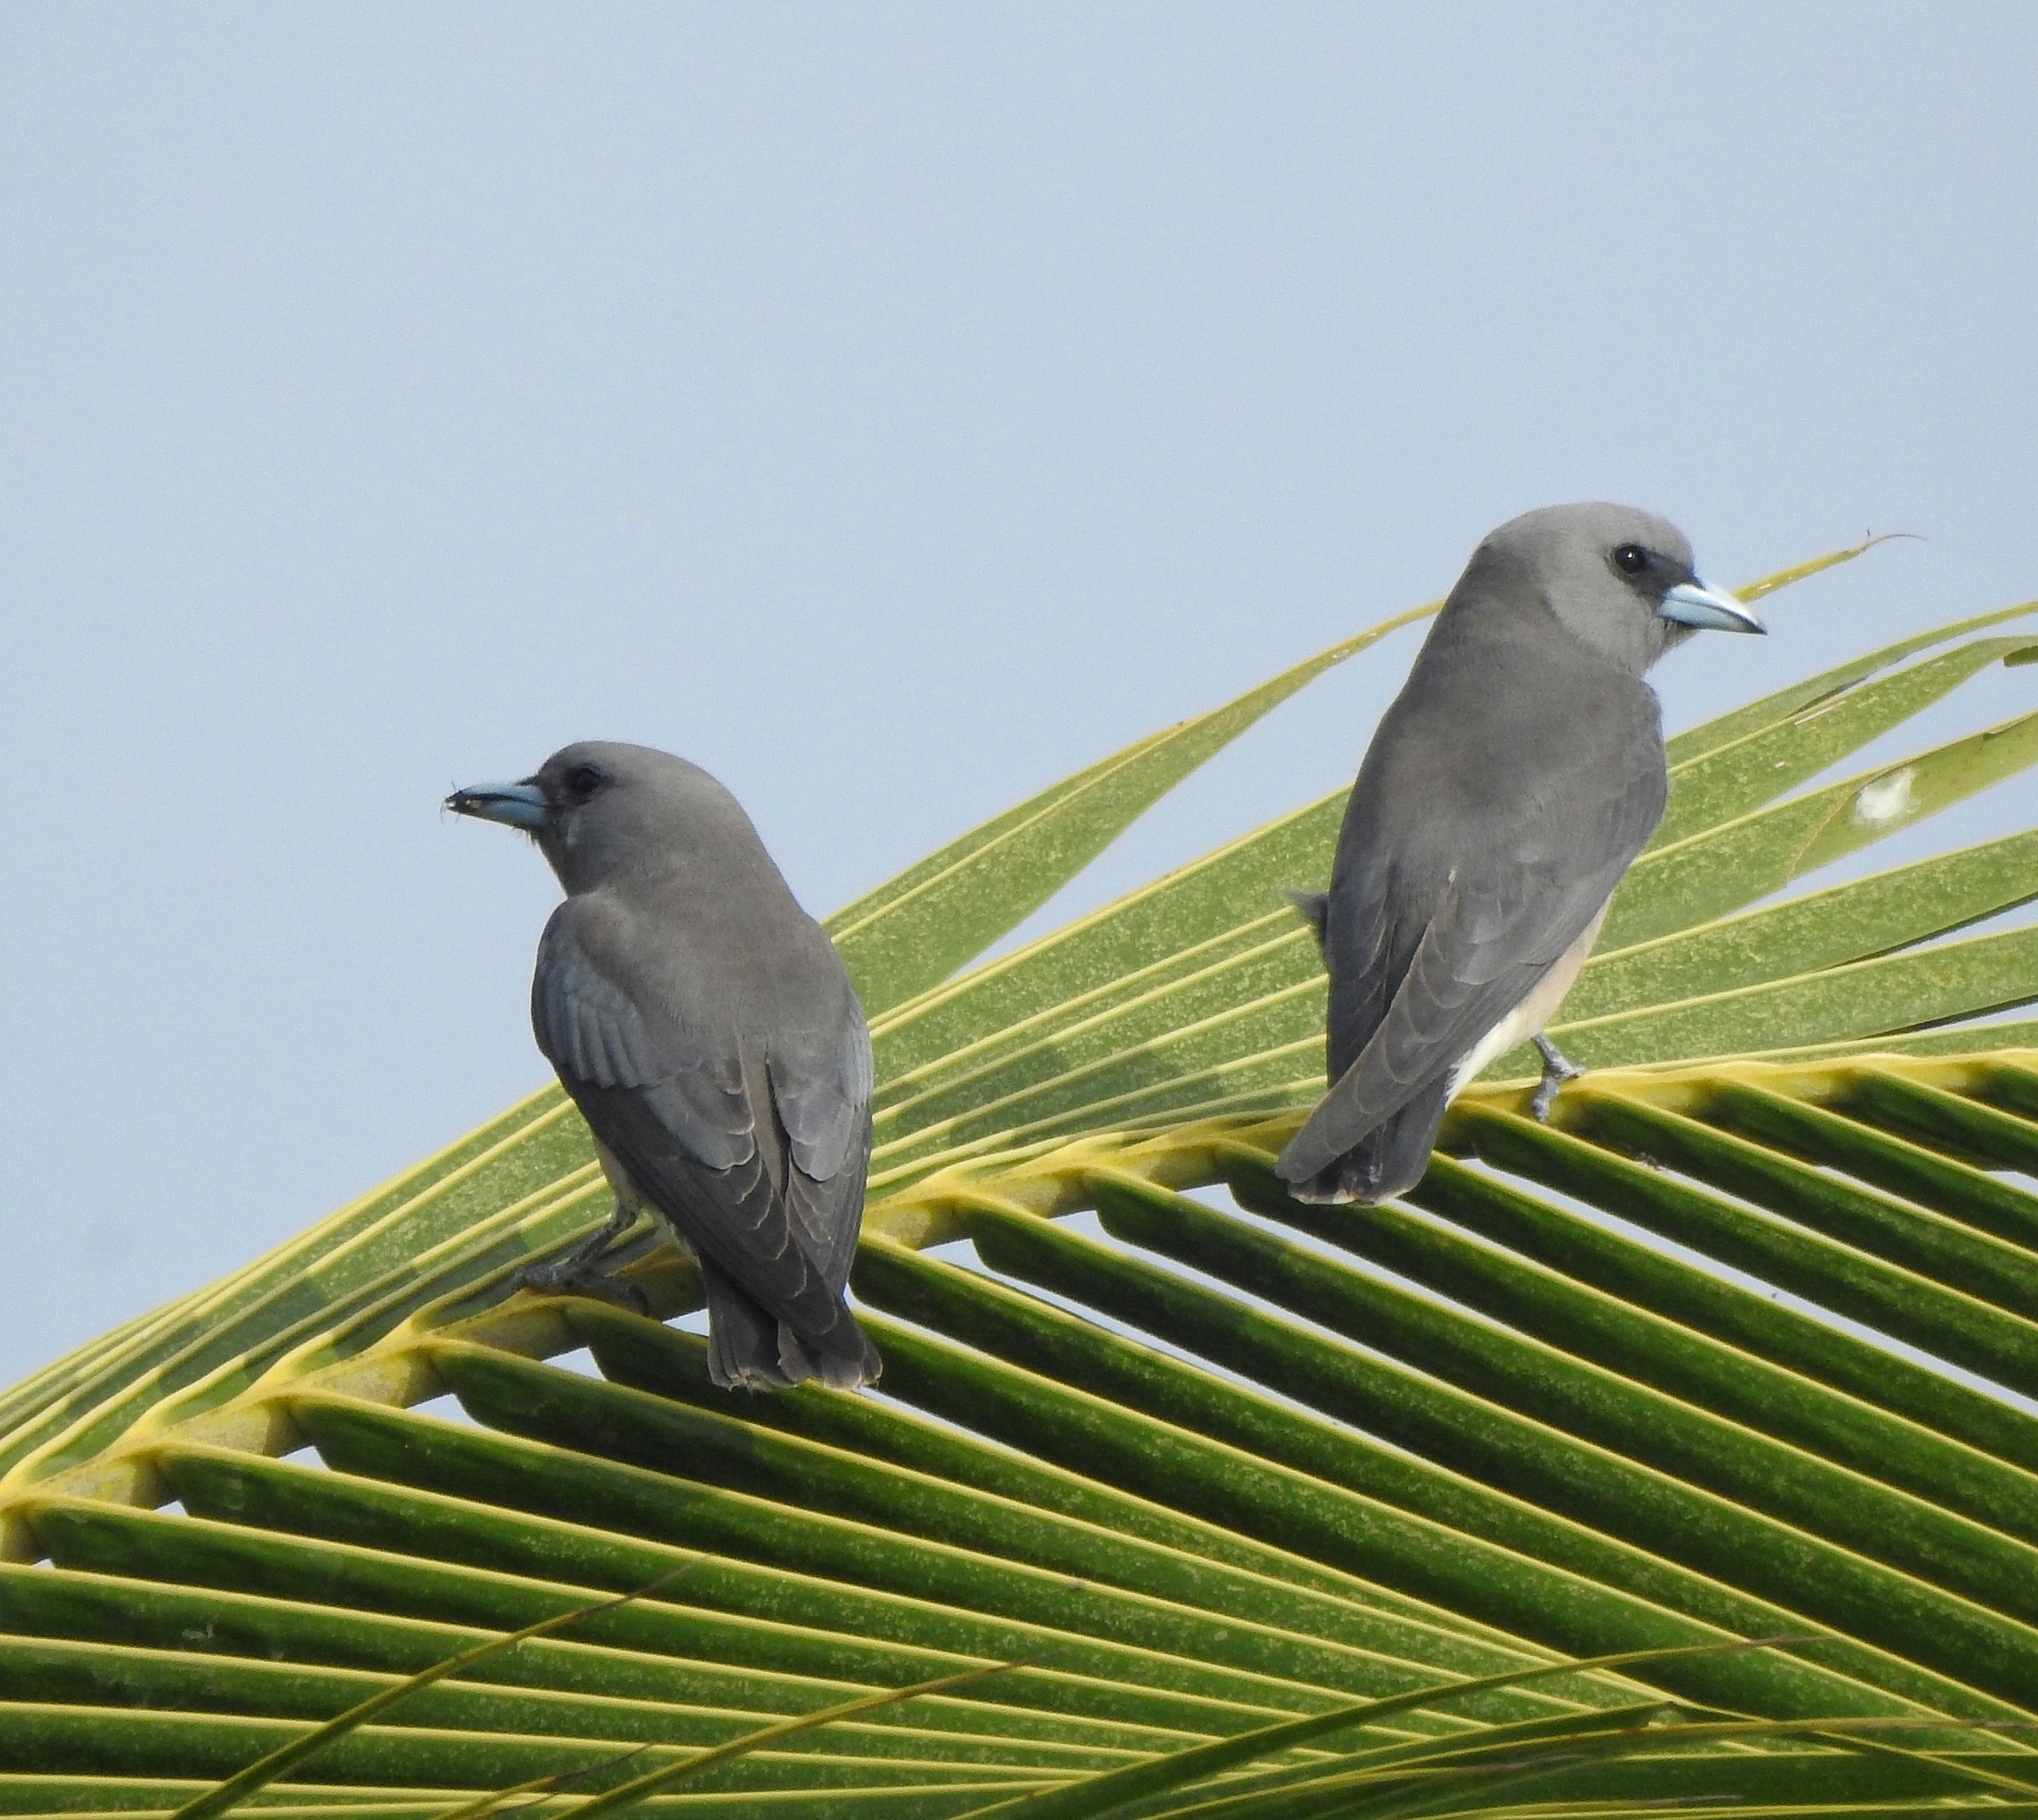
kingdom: Animalia
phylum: Chordata
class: Aves
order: Passeriformes
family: Artamidae
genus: Artamus
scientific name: Artamus fuscus
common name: Ashy woodswallow
